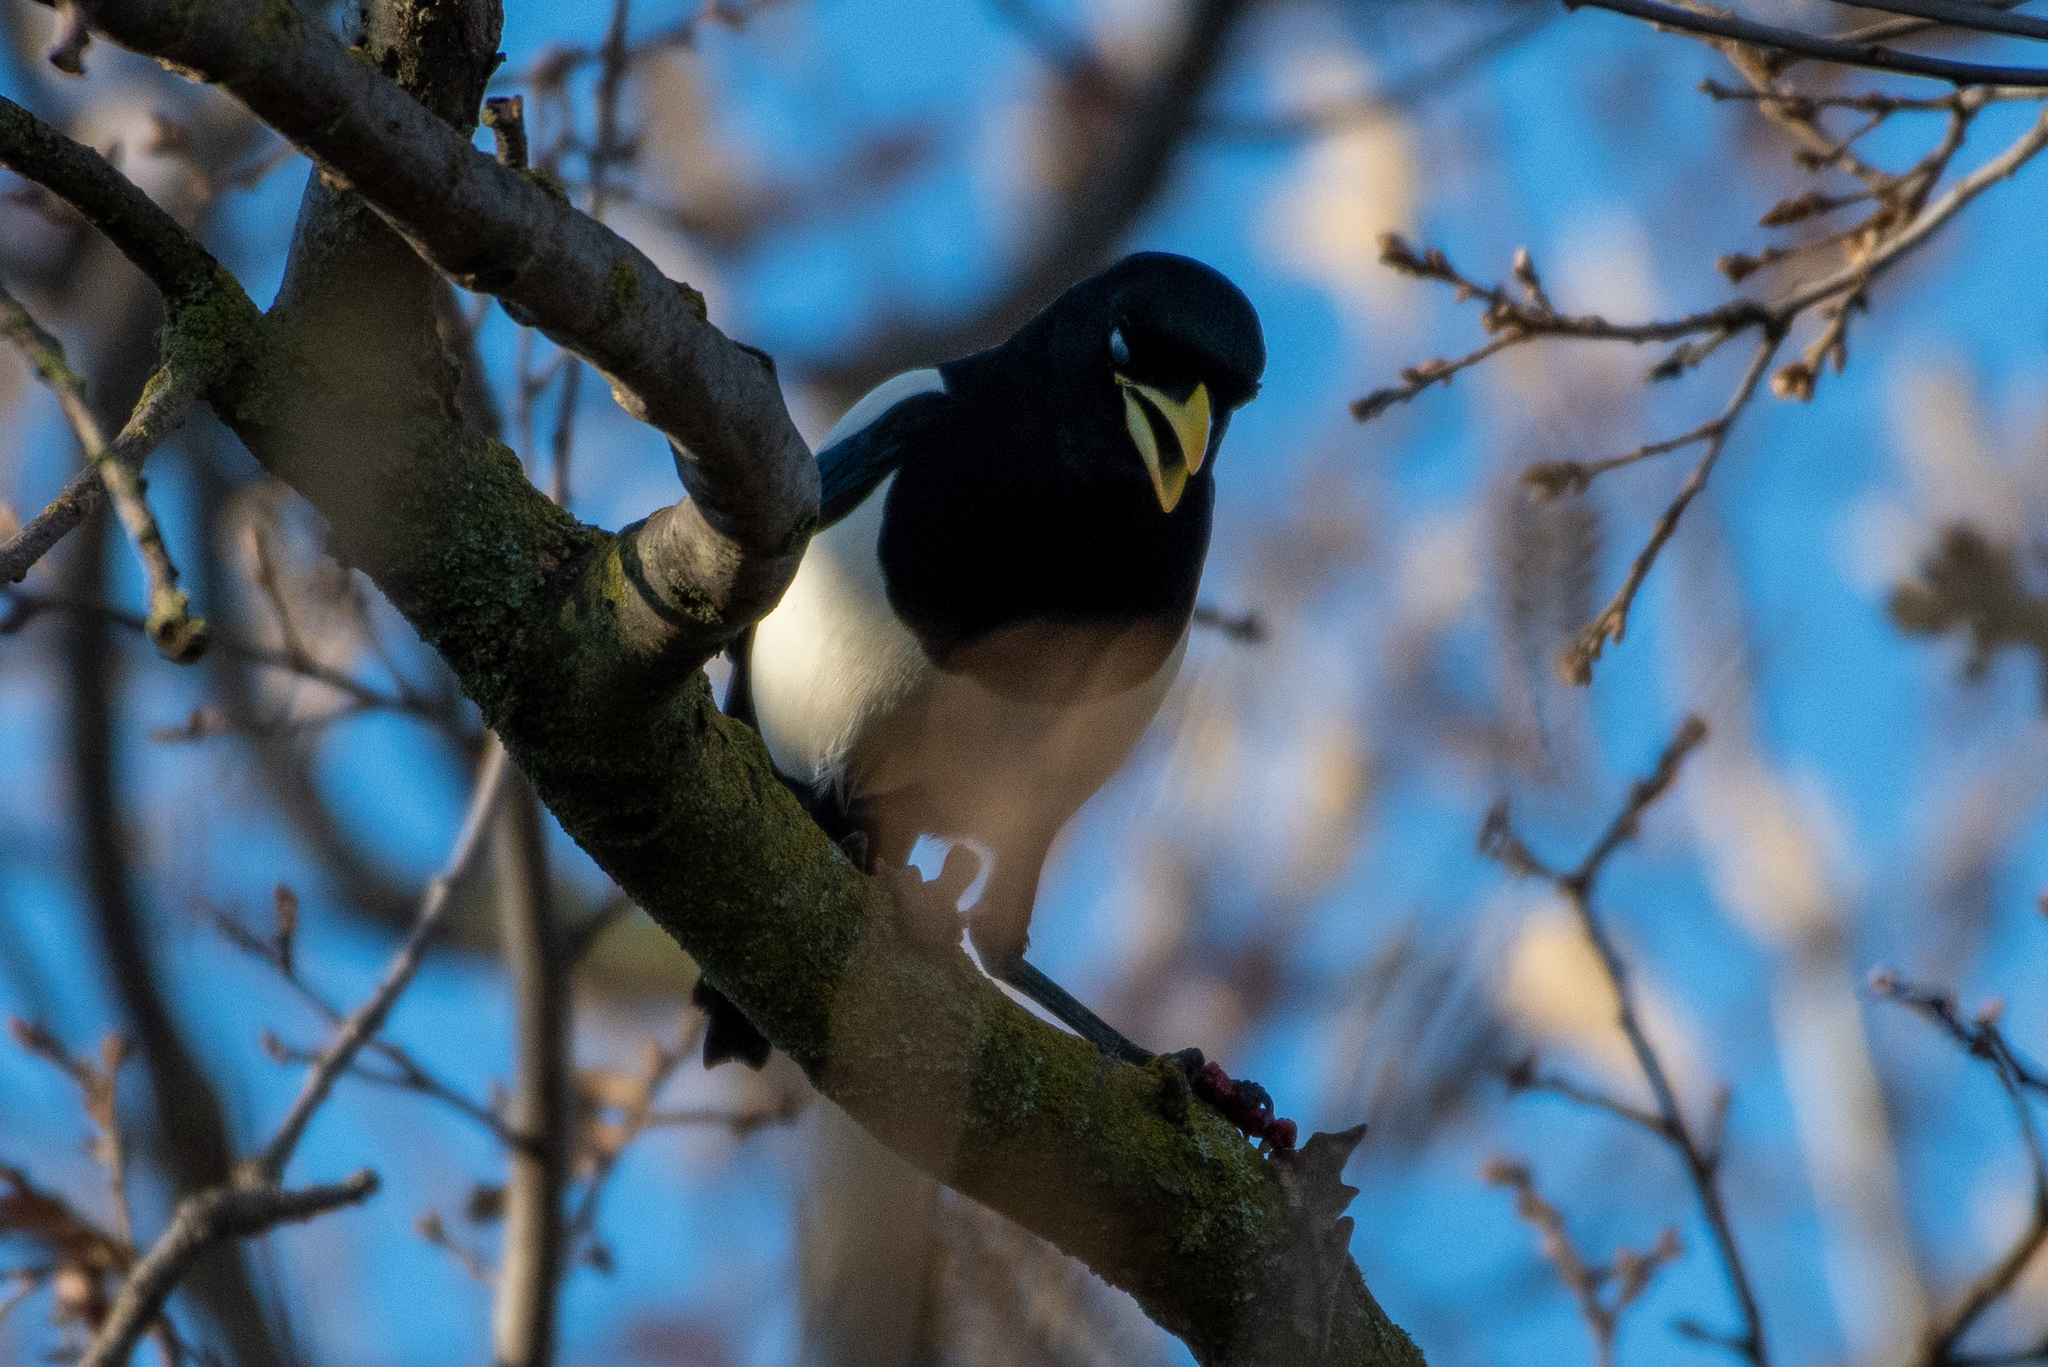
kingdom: Animalia
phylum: Chordata
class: Aves
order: Passeriformes
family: Corvidae
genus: Pica
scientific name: Pica nuttalli
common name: Yellow-billed magpie
